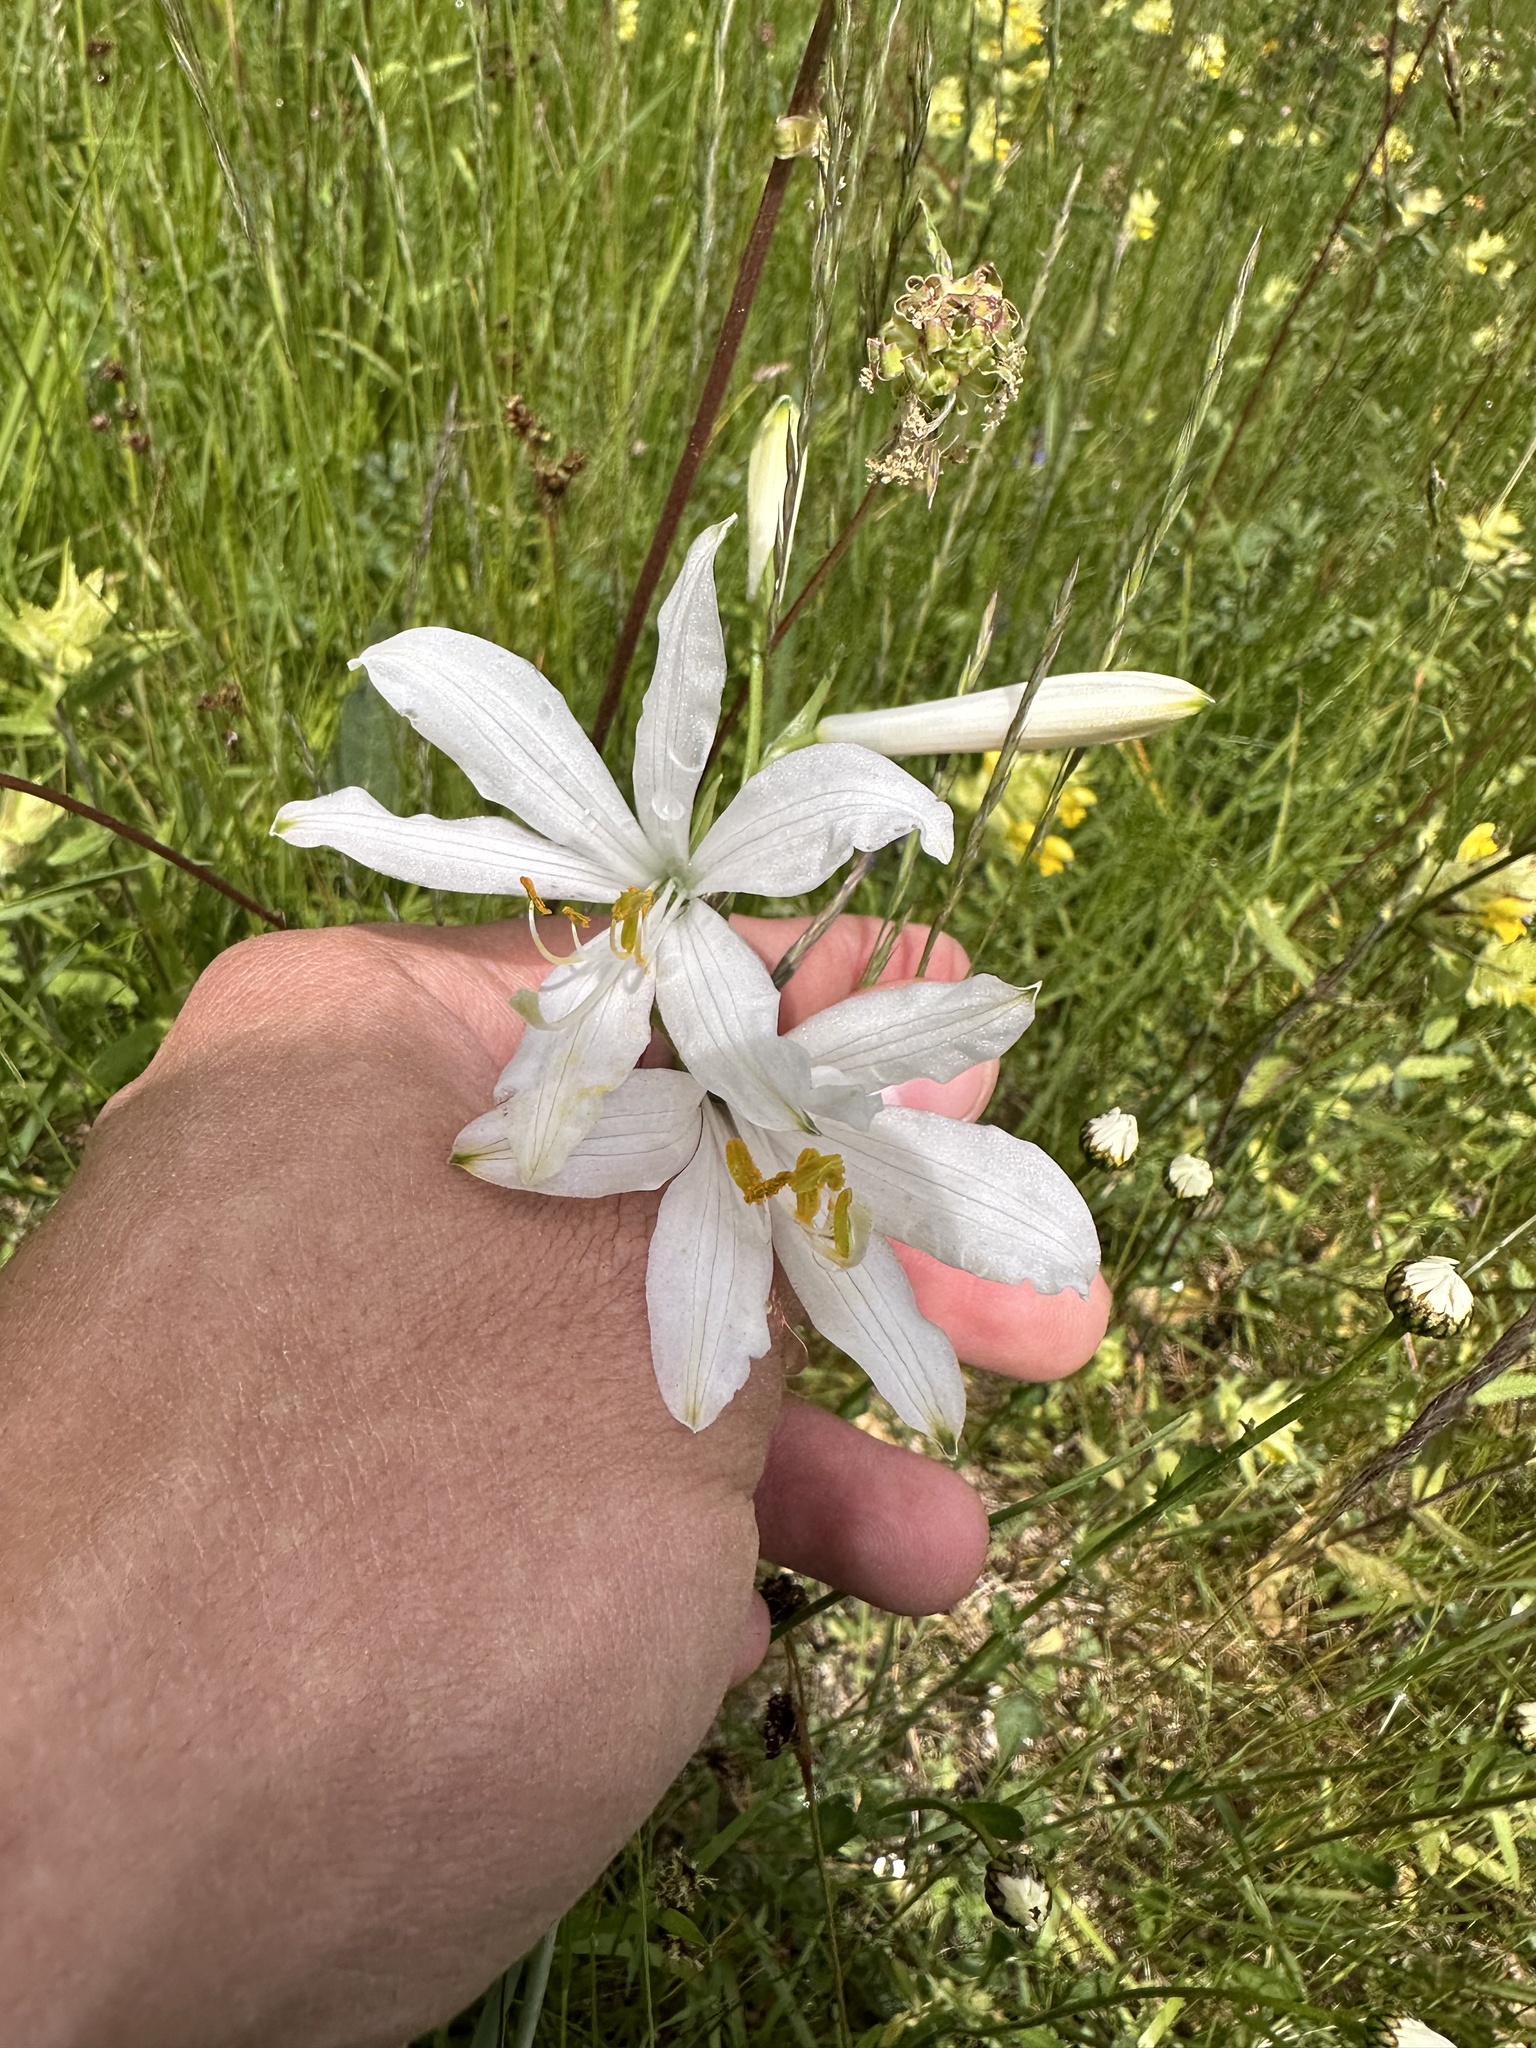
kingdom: Plantae
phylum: Tracheophyta
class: Liliopsida
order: Asparagales
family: Asparagaceae
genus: Paradisea
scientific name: Paradisea liliastrum
